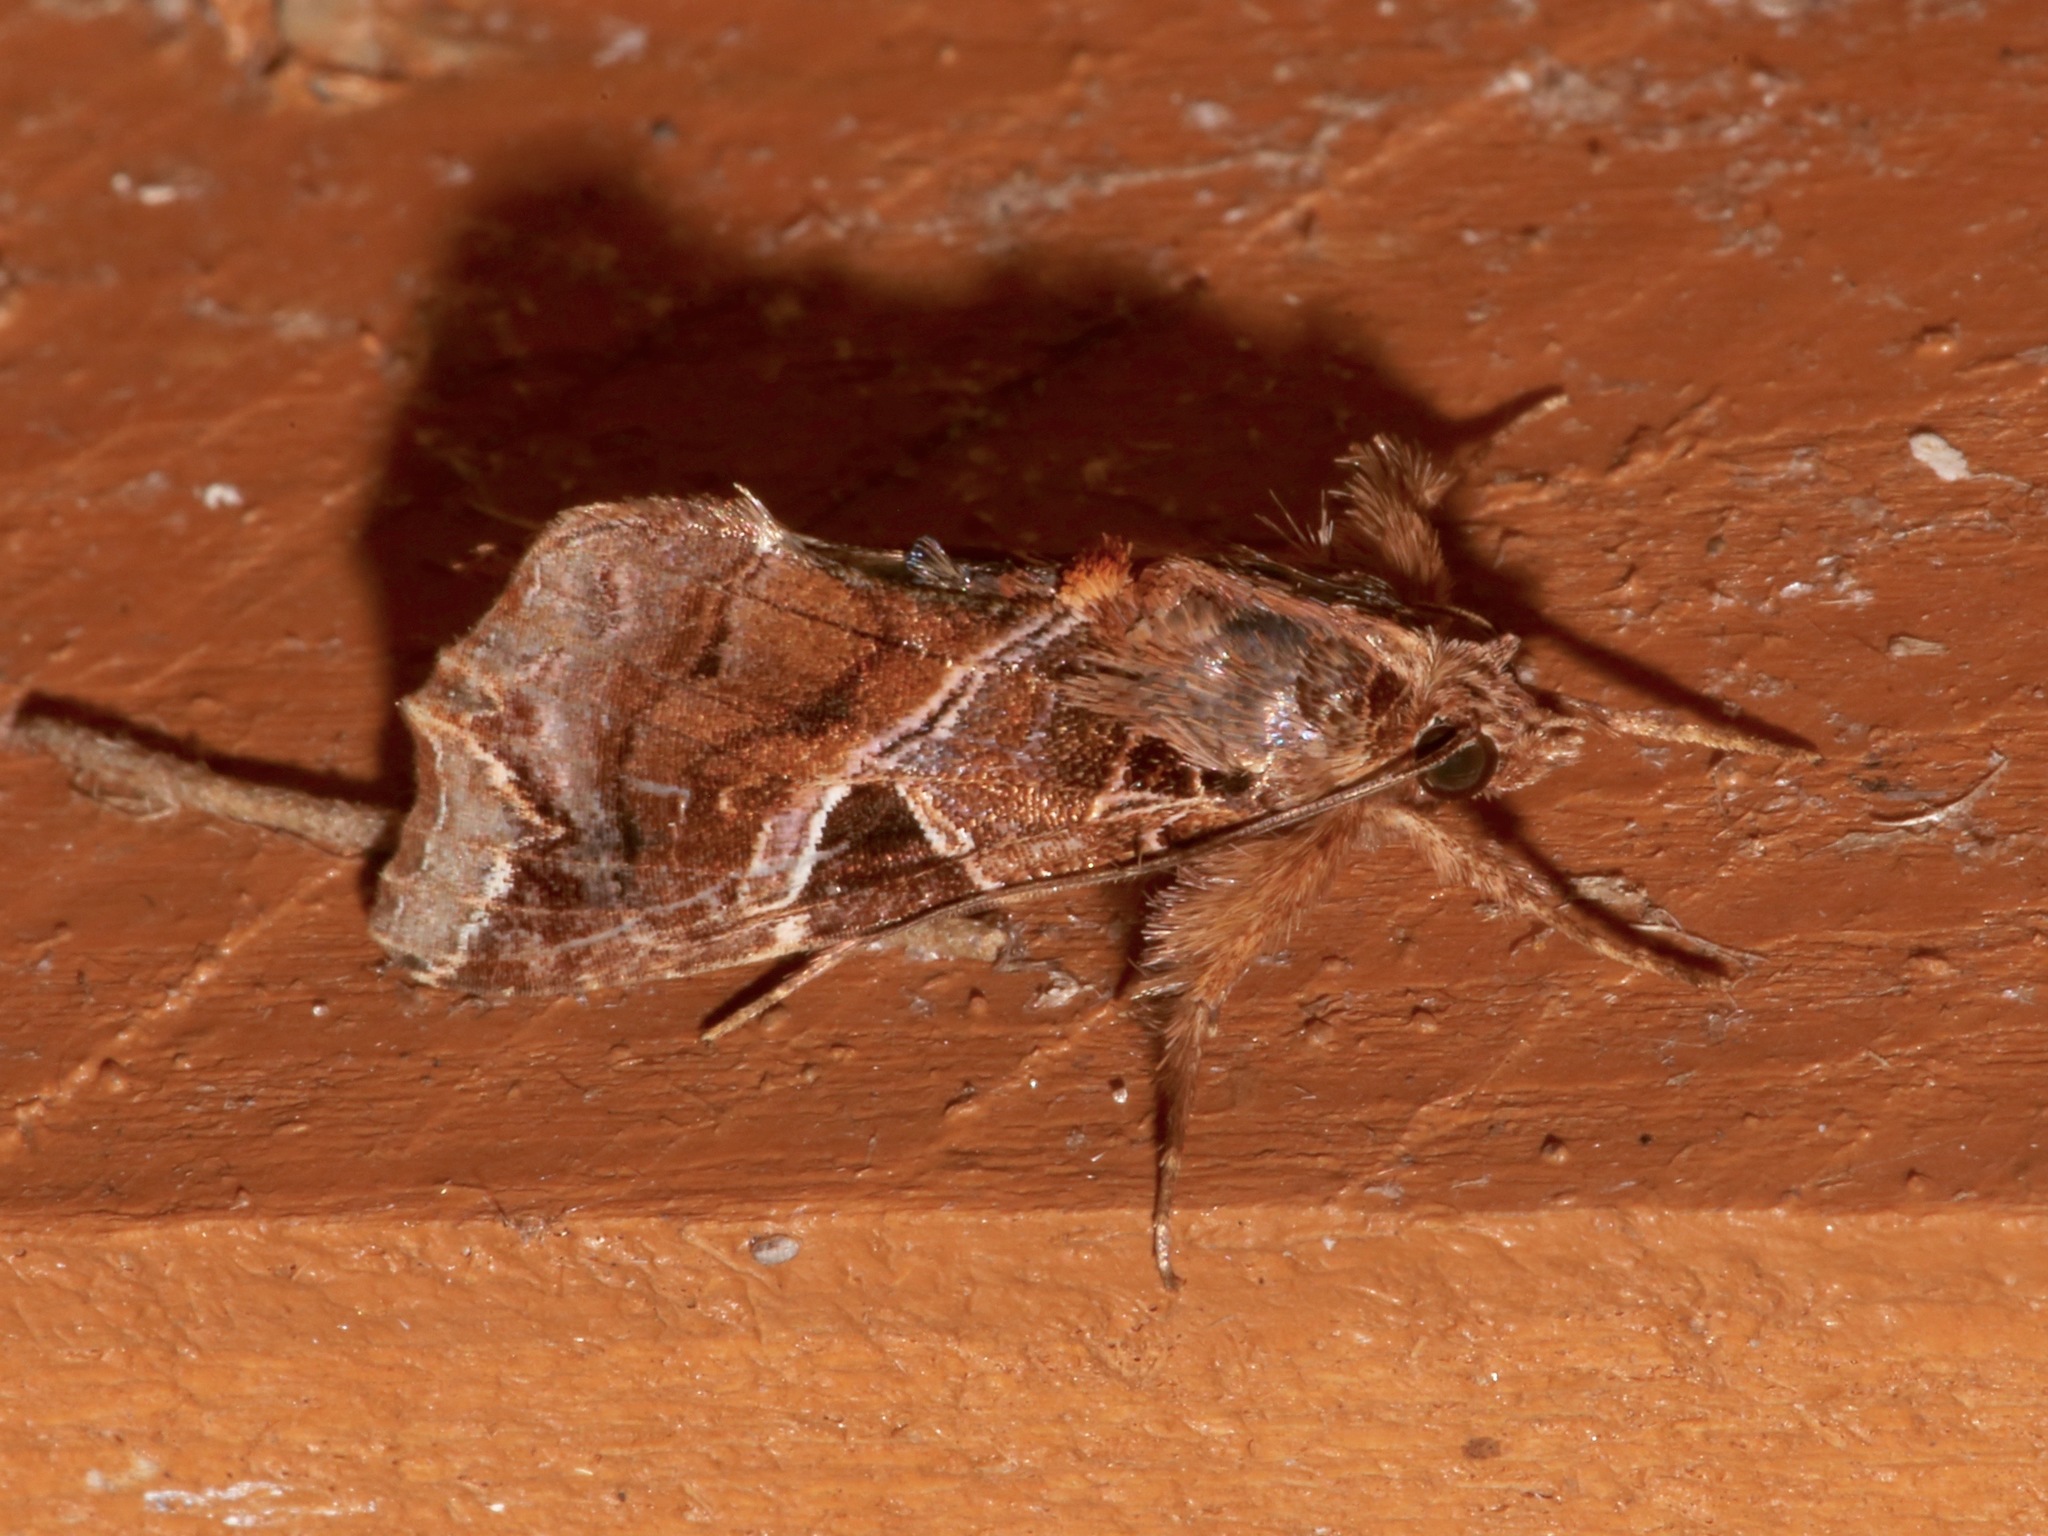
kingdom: Animalia
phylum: Arthropoda
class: Insecta
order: Lepidoptera
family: Noctuidae
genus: Callopistria
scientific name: Callopistria floridensis
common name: Florida fern moth
